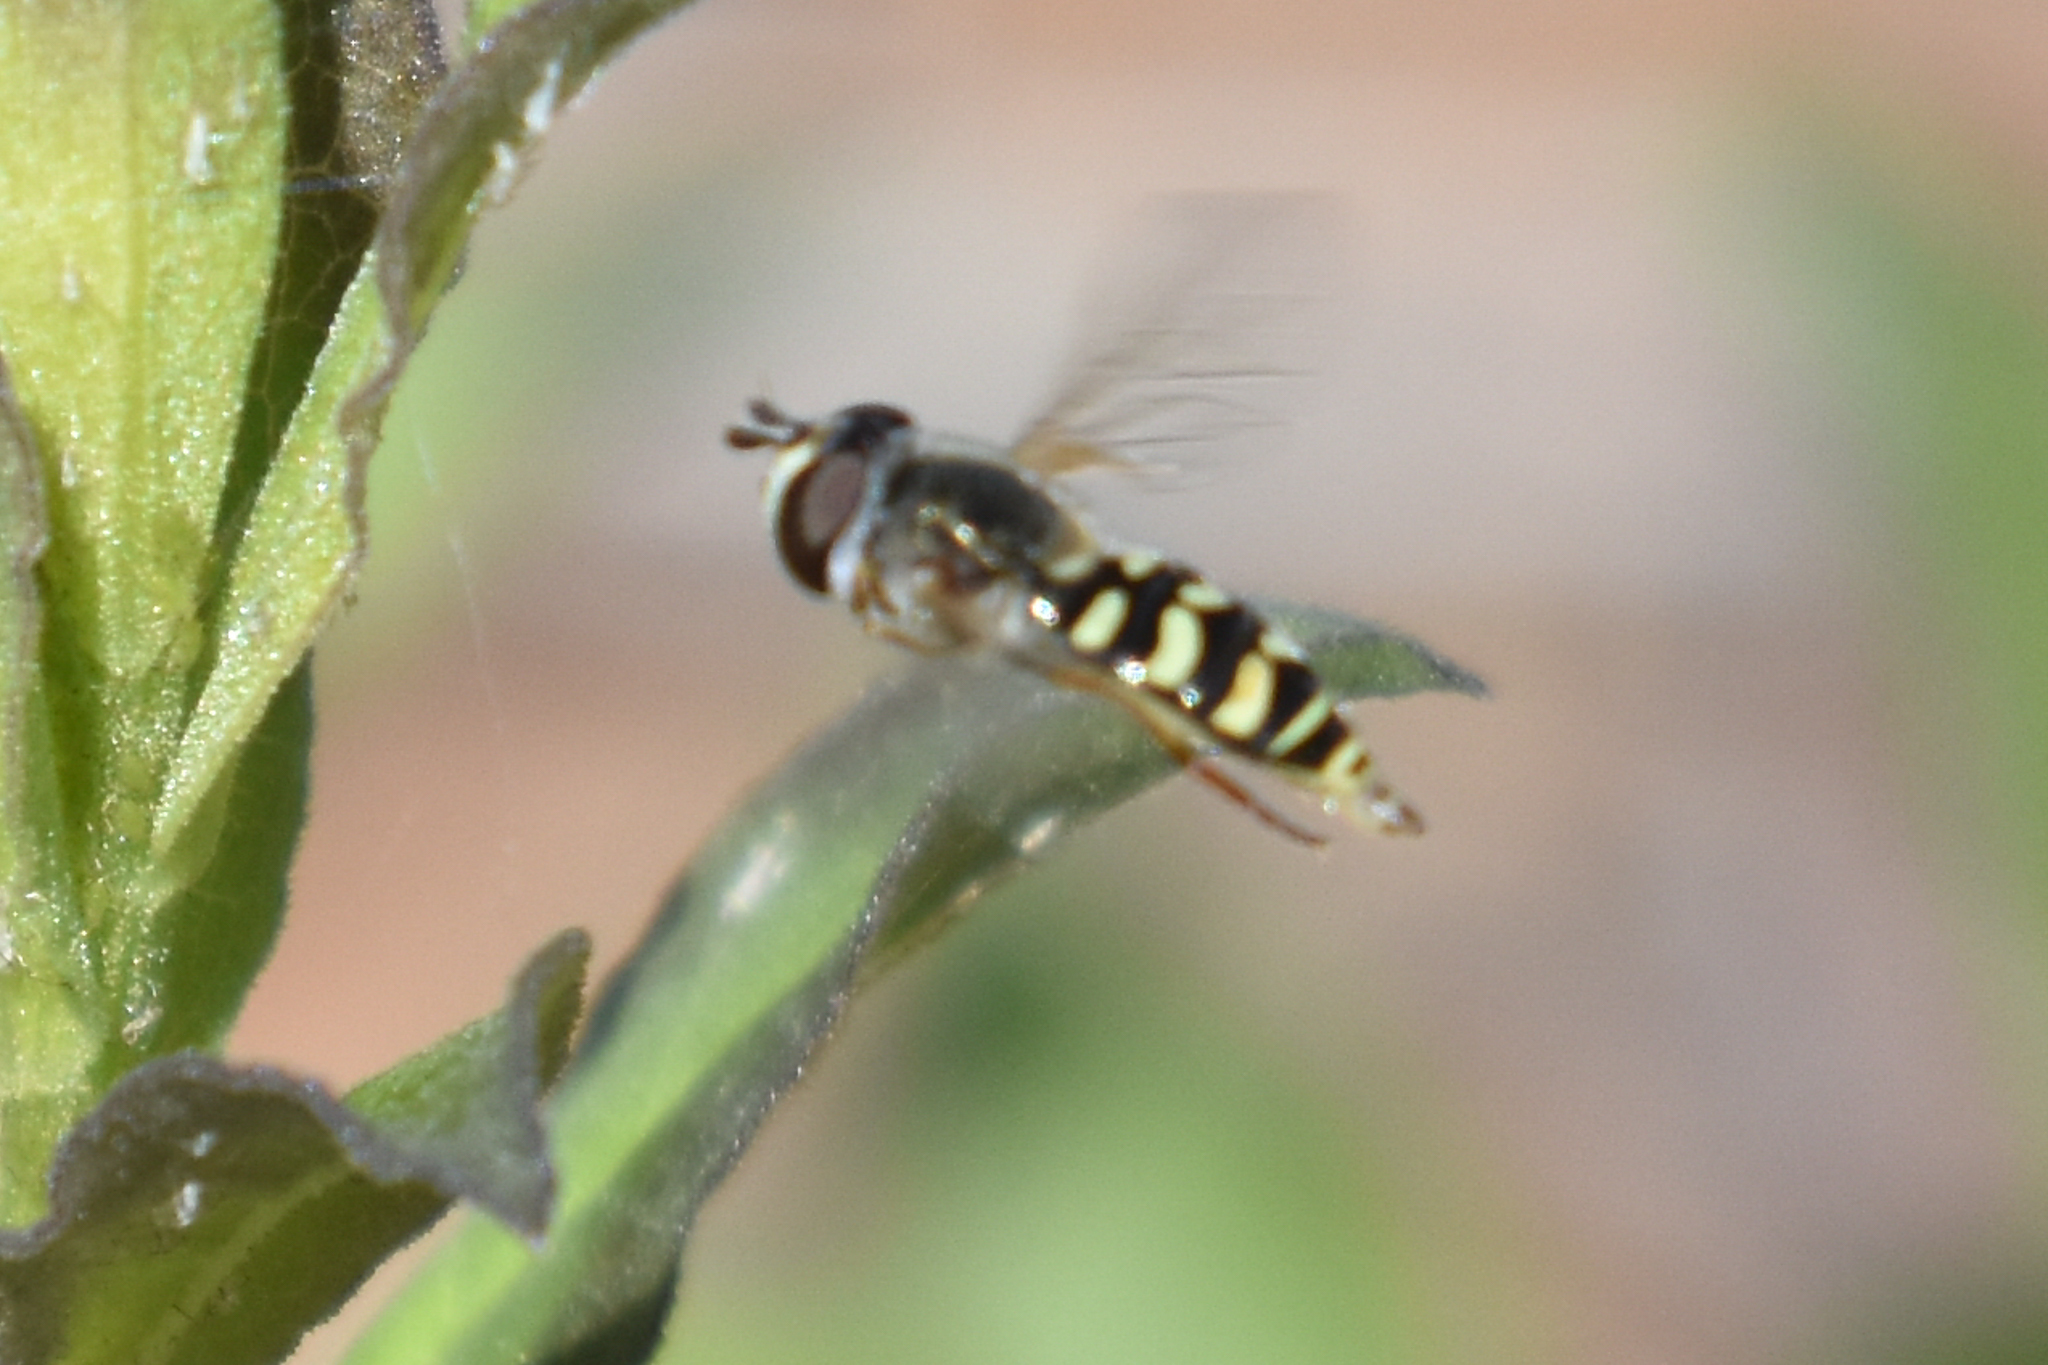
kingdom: Animalia
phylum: Arthropoda
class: Insecta
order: Diptera
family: Syrphidae
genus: Eupeodes
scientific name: Eupeodes volucris
